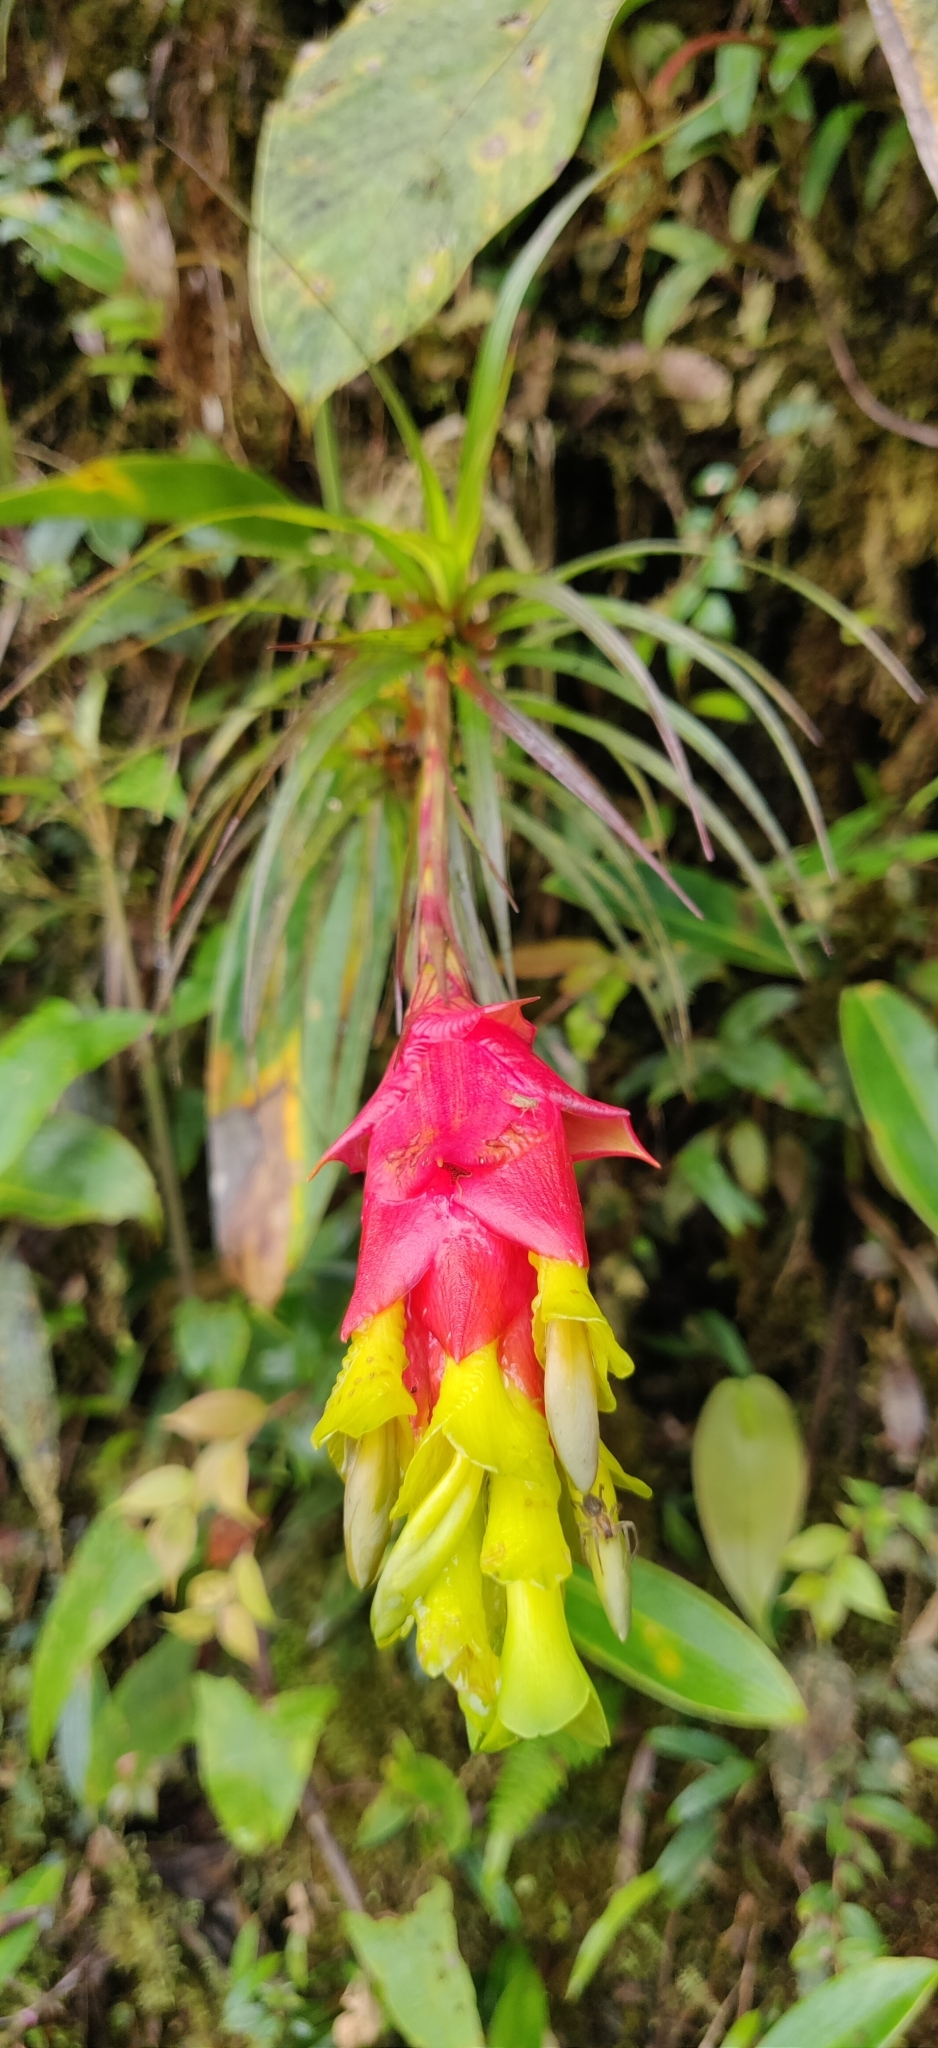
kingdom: Plantae
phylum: Tracheophyta
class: Liliopsida
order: Poales
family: Bromeliaceae
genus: Guzmania
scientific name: Guzmania pearcei
